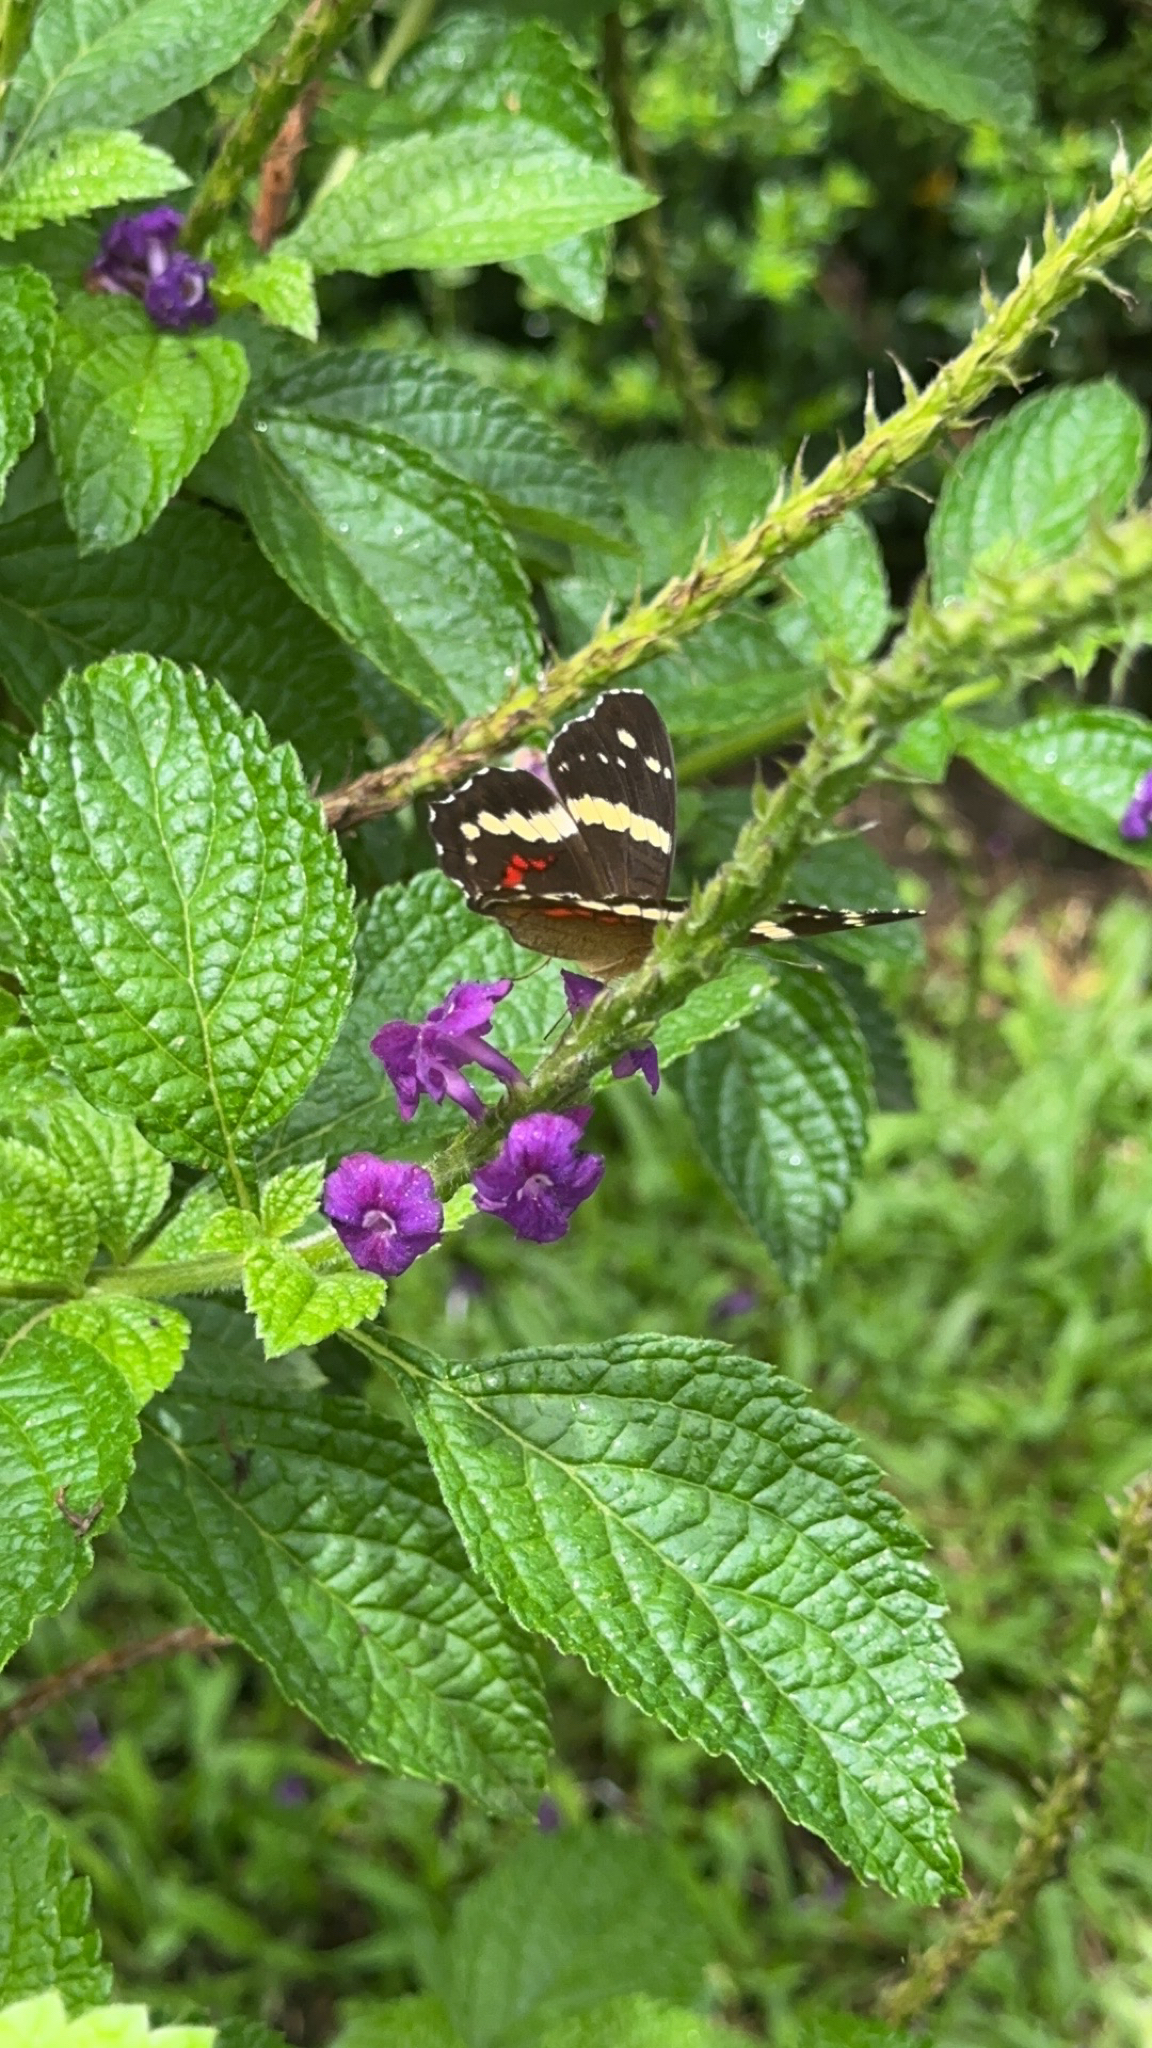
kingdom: Animalia
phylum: Arthropoda
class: Insecta
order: Lepidoptera
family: Nymphalidae
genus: Anartia
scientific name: Anartia fatima
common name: Banded peacock
